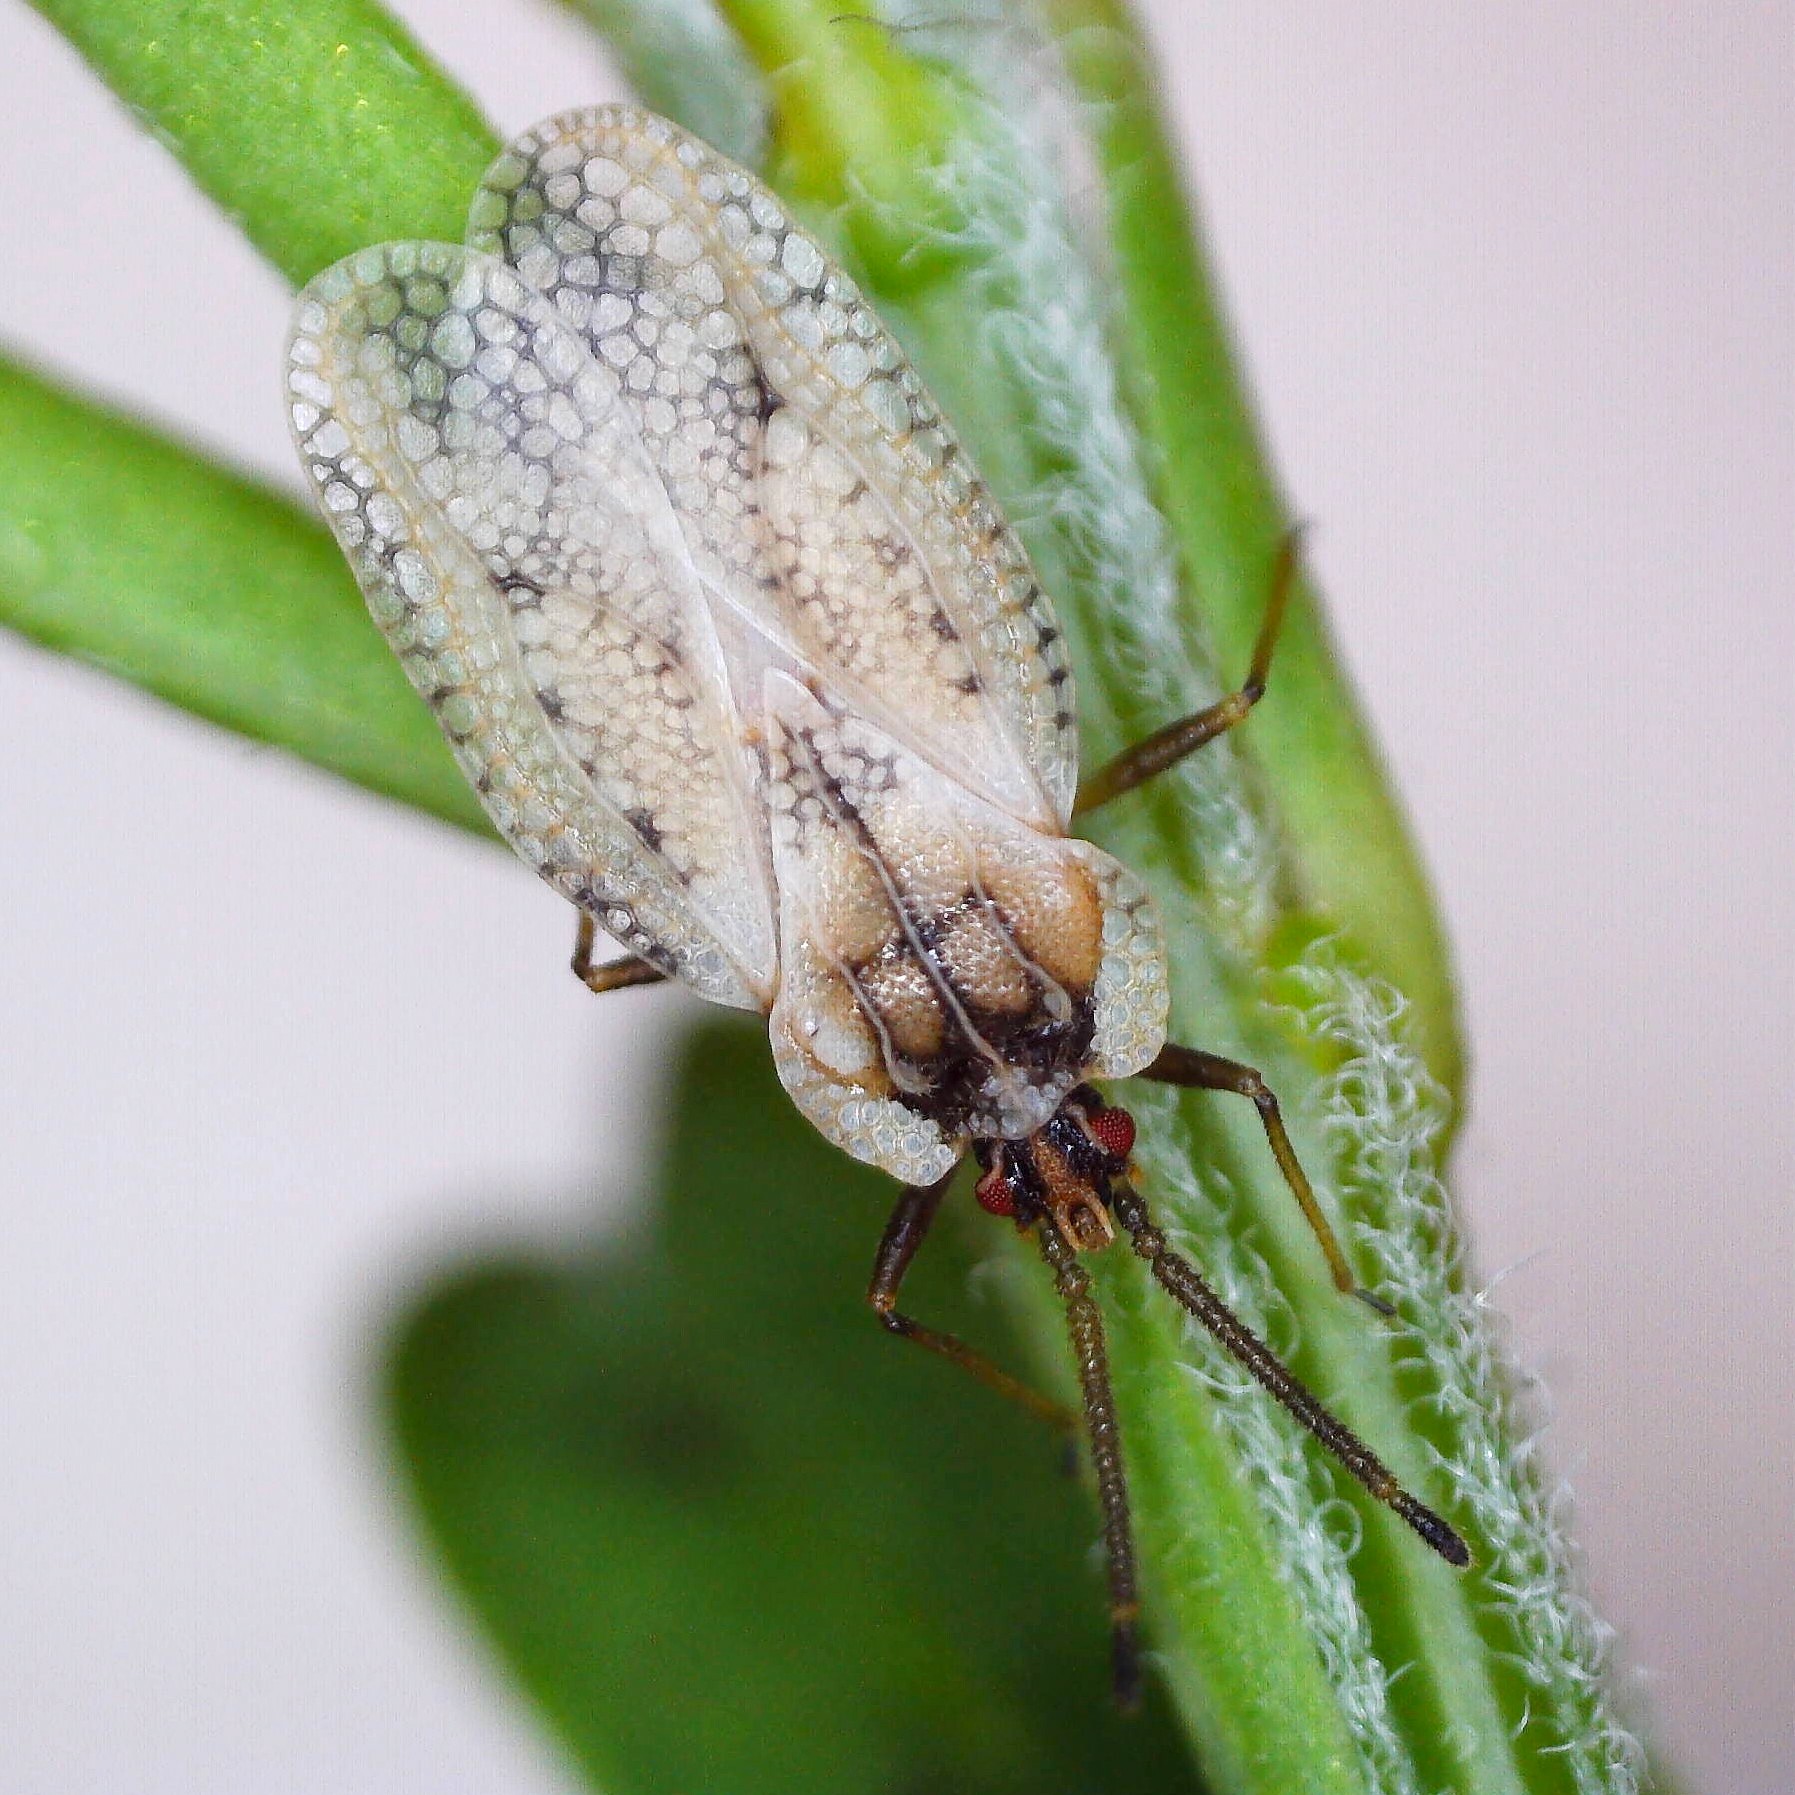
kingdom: Animalia
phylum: Arthropoda
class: Insecta
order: Hemiptera
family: Tingidae
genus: Dictyonota
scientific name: Dictyonota fuliginosa
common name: Lace bug
